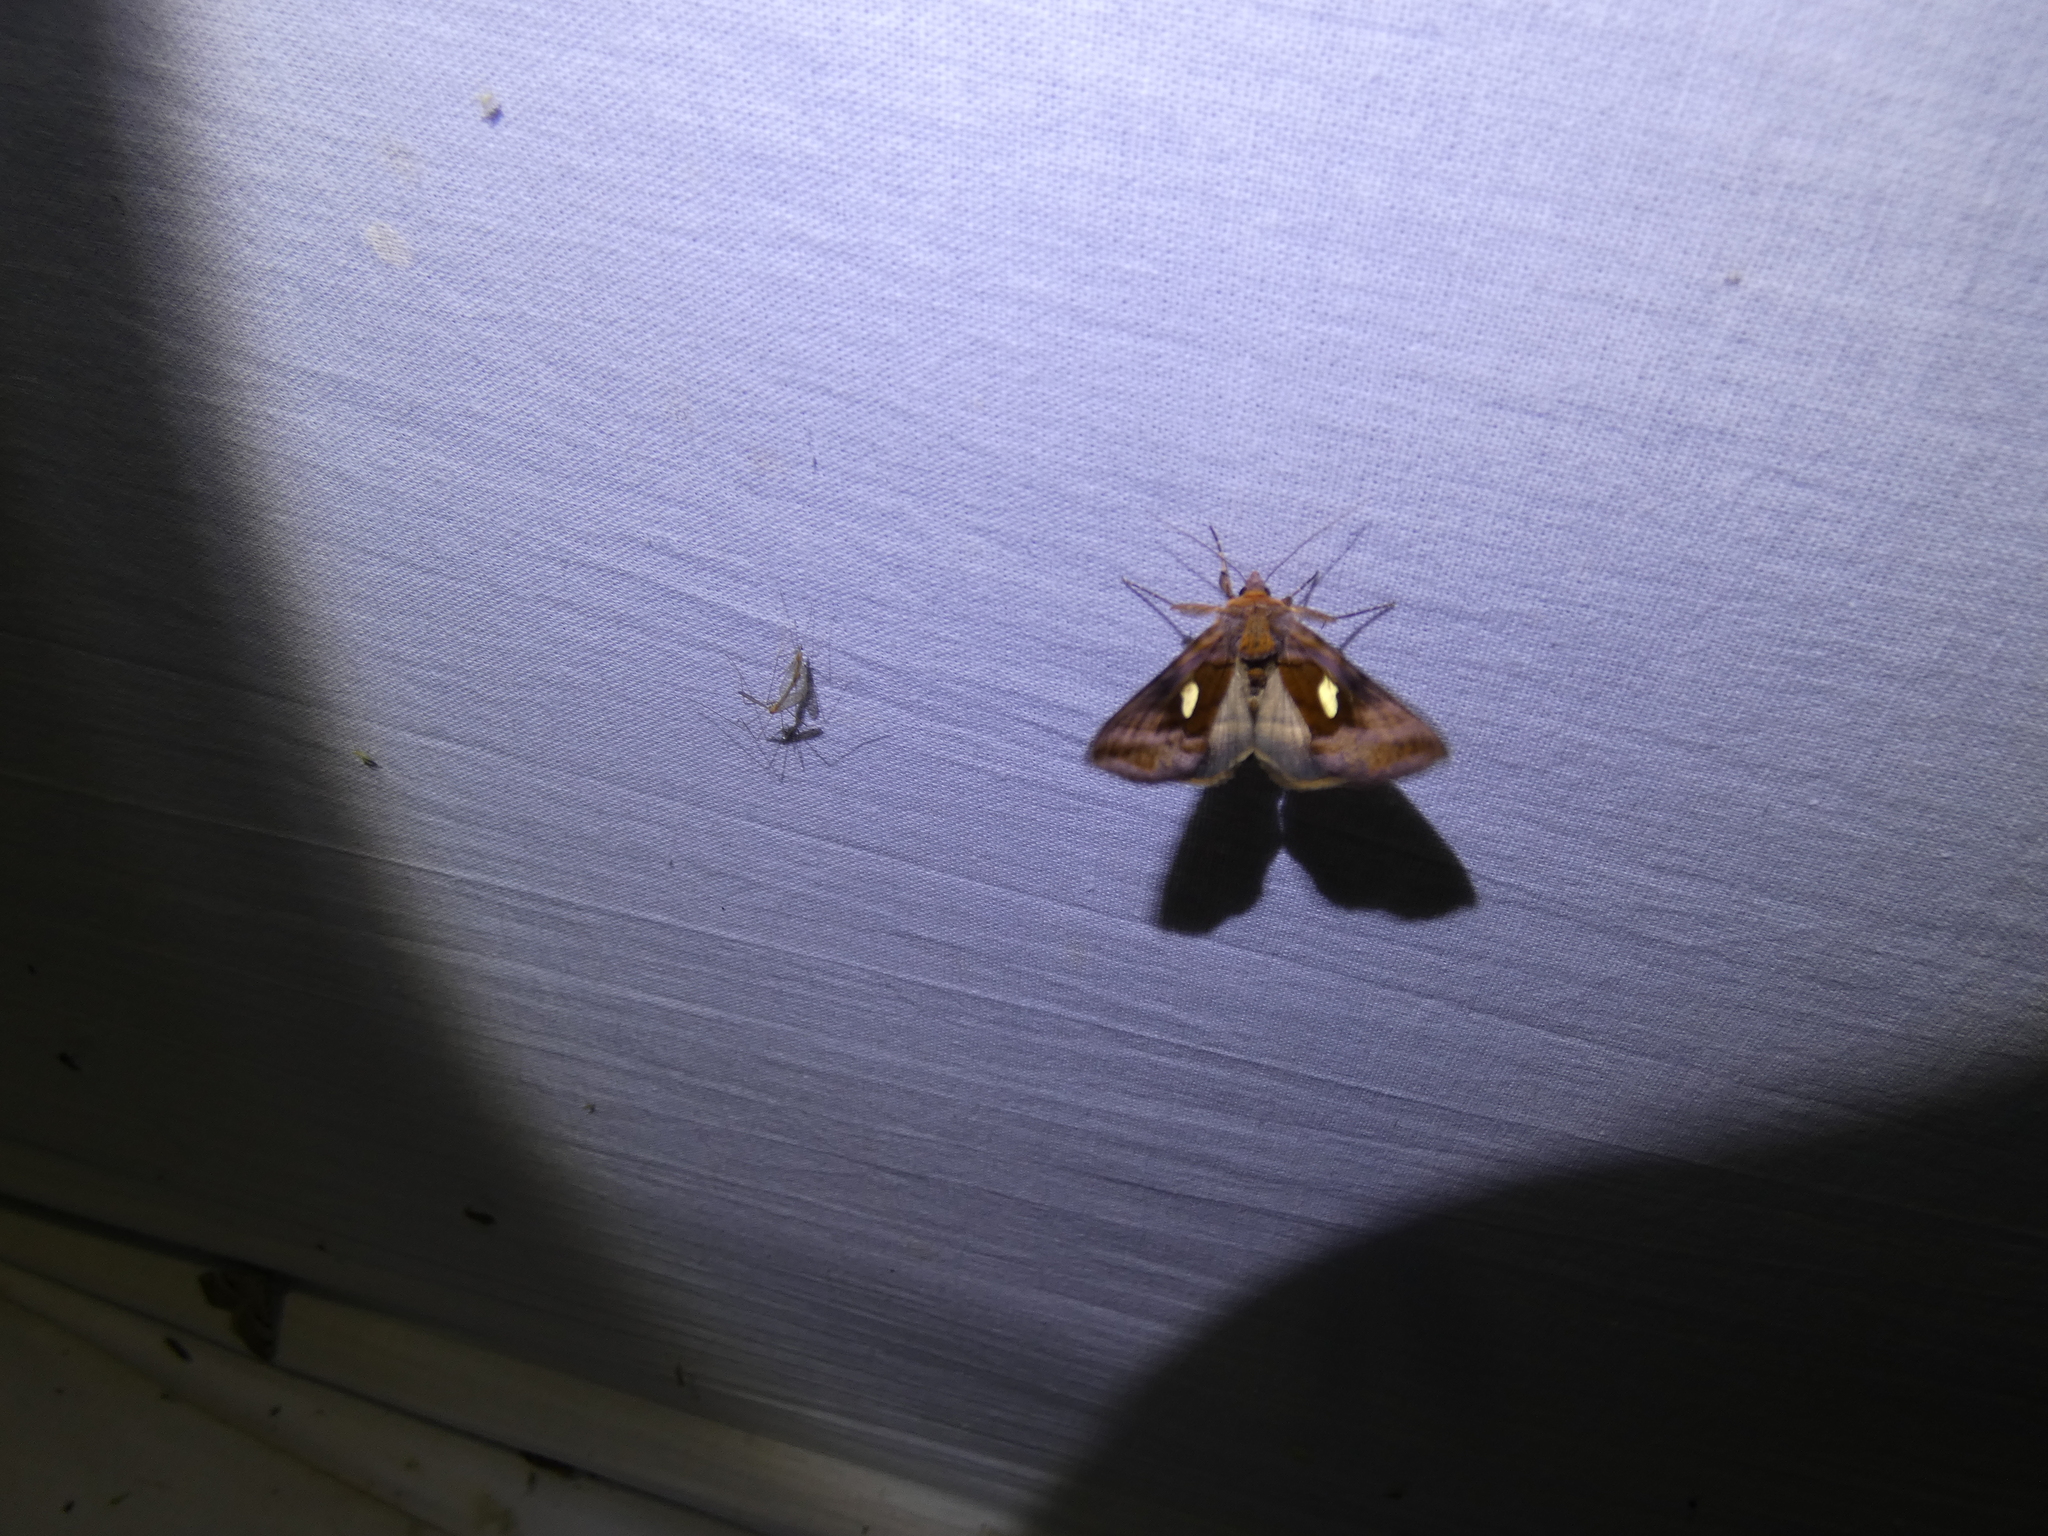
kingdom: Animalia
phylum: Arthropoda
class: Insecta
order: Lepidoptera
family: Noctuidae
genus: Autographa
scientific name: Autographa excelsa
